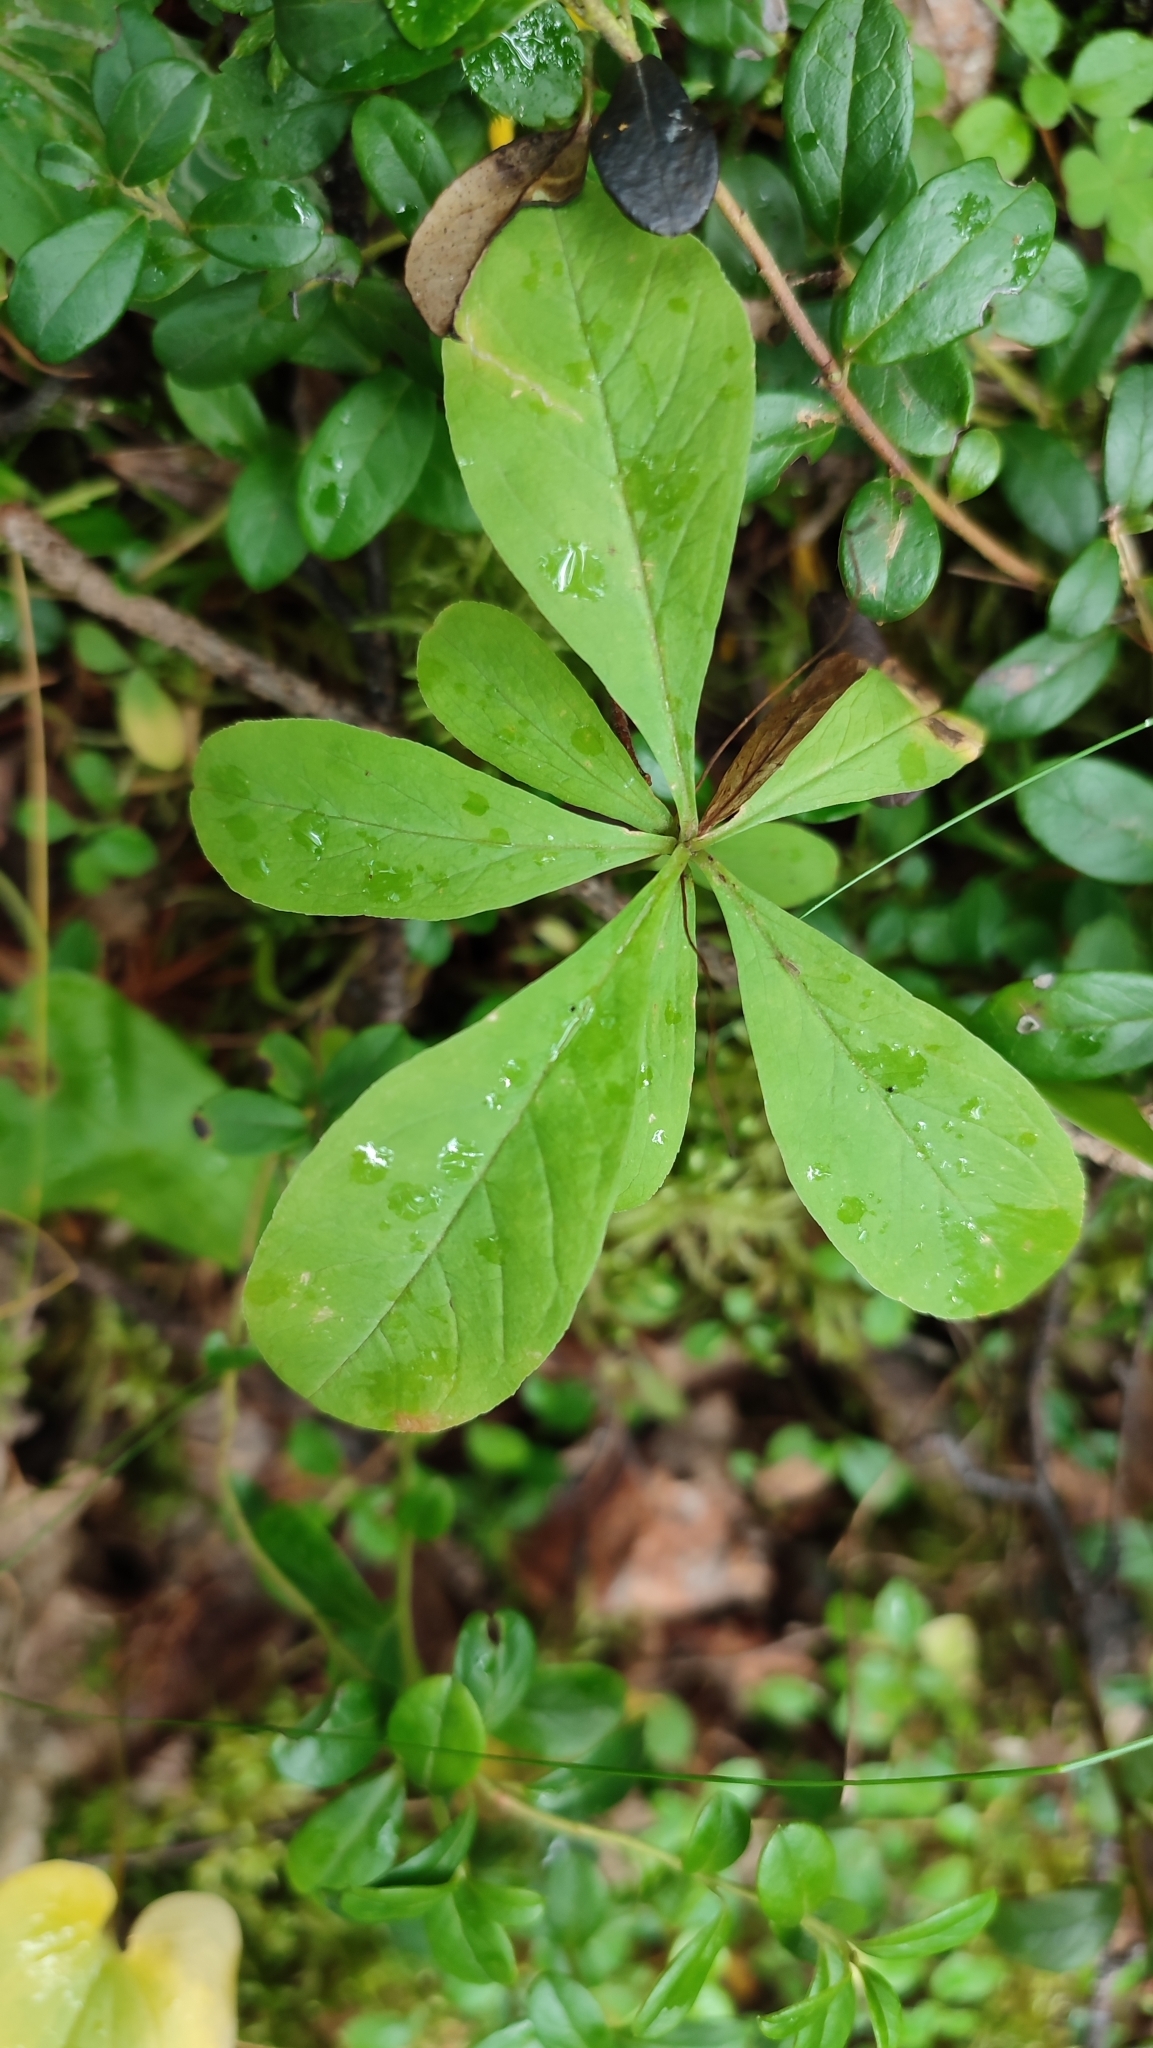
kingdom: Plantae
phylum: Tracheophyta
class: Magnoliopsida
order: Ericales
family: Primulaceae
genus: Lysimachia
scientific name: Lysimachia europaea
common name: Arctic starflower
